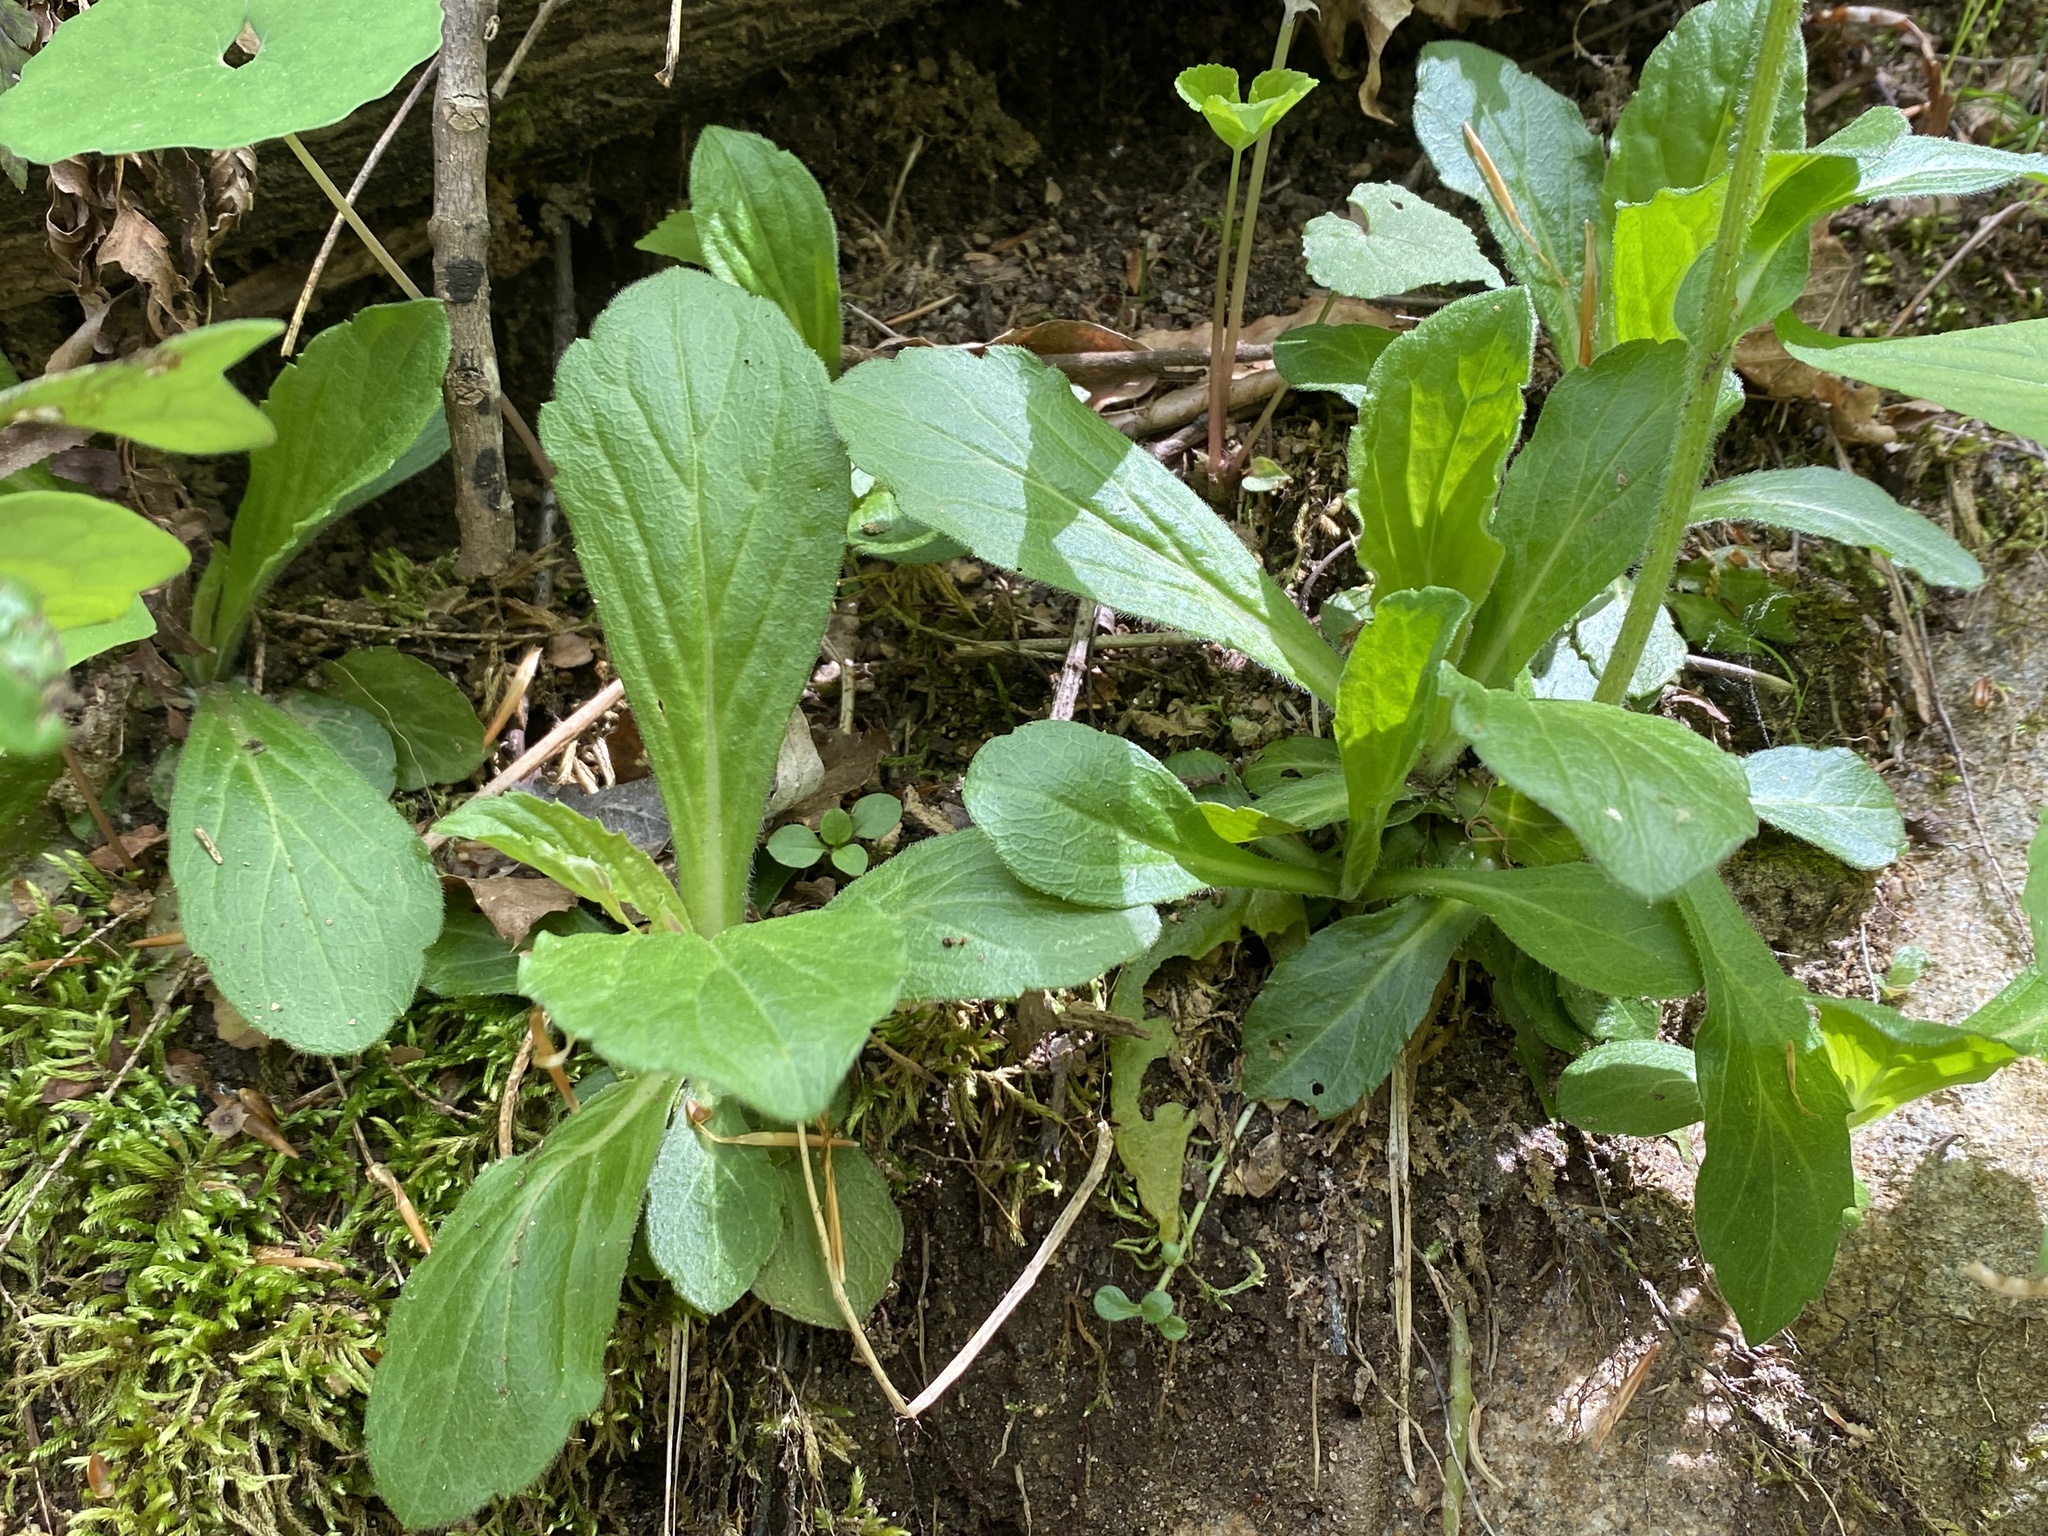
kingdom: Plantae
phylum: Tracheophyta
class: Magnoliopsida
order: Asterales
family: Asteraceae
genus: Erigeron
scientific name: Erigeron pulchellus
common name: Hairy fleabane
